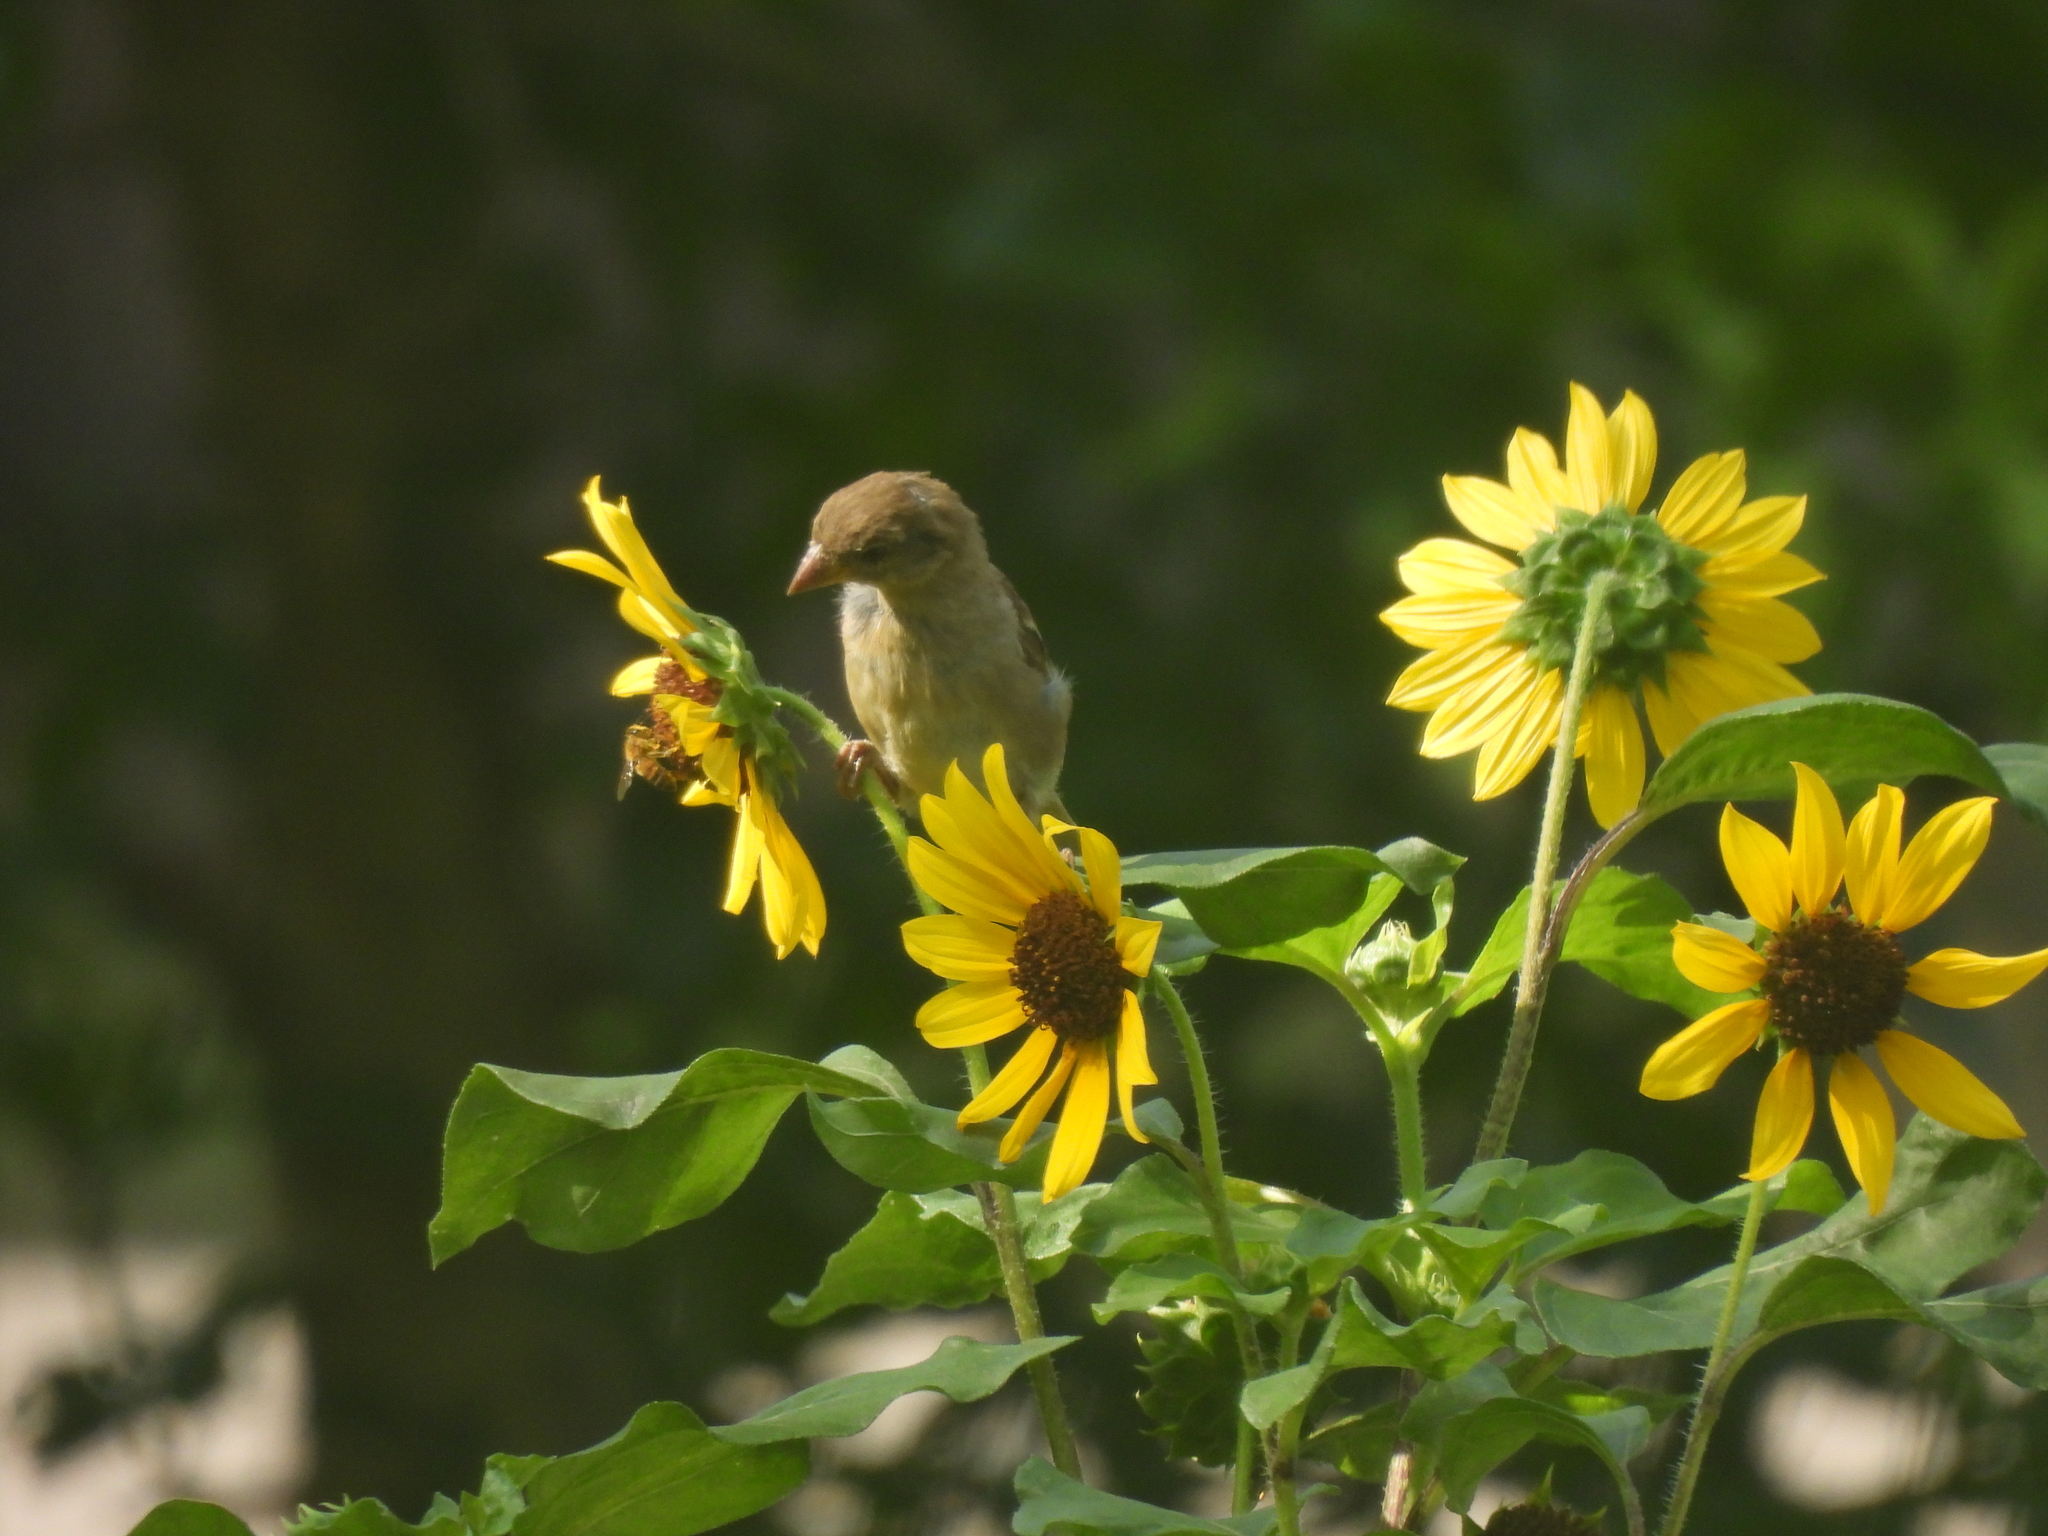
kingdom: Animalia
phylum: Chordata
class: Aves
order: Passeriformes
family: Passeridae
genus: Passer
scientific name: Passer domesticus
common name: House sparrow
